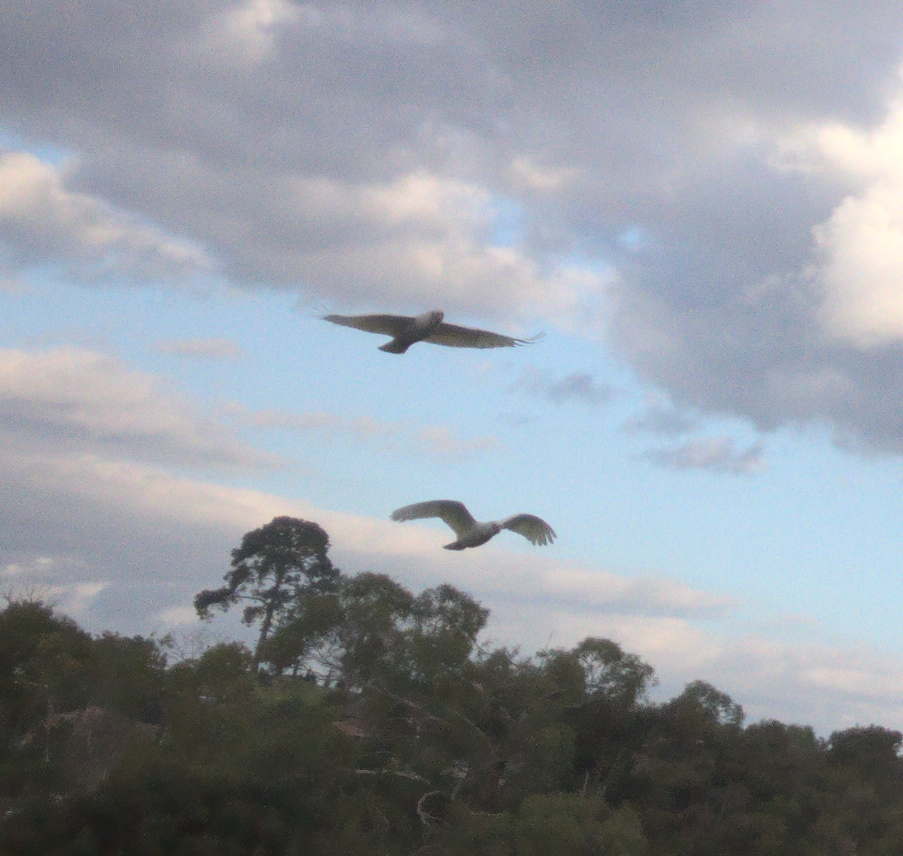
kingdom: Animalia
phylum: Chordata
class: Aves
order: Psittaciformes
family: Psittacidae
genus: Cacatua
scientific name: Cacatua sanguinea
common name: Little corella
